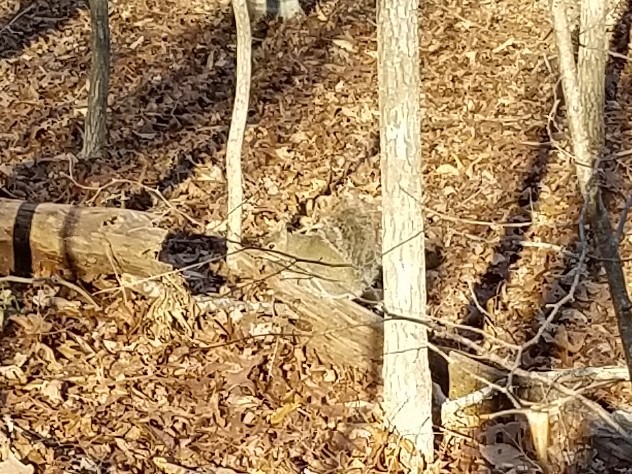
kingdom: Animalia
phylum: Chordata
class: Mammalia
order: Rodentia
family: Sciuridae
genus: Sciurus
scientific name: Sciurus carolinensis
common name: Eastern gray squirrel
